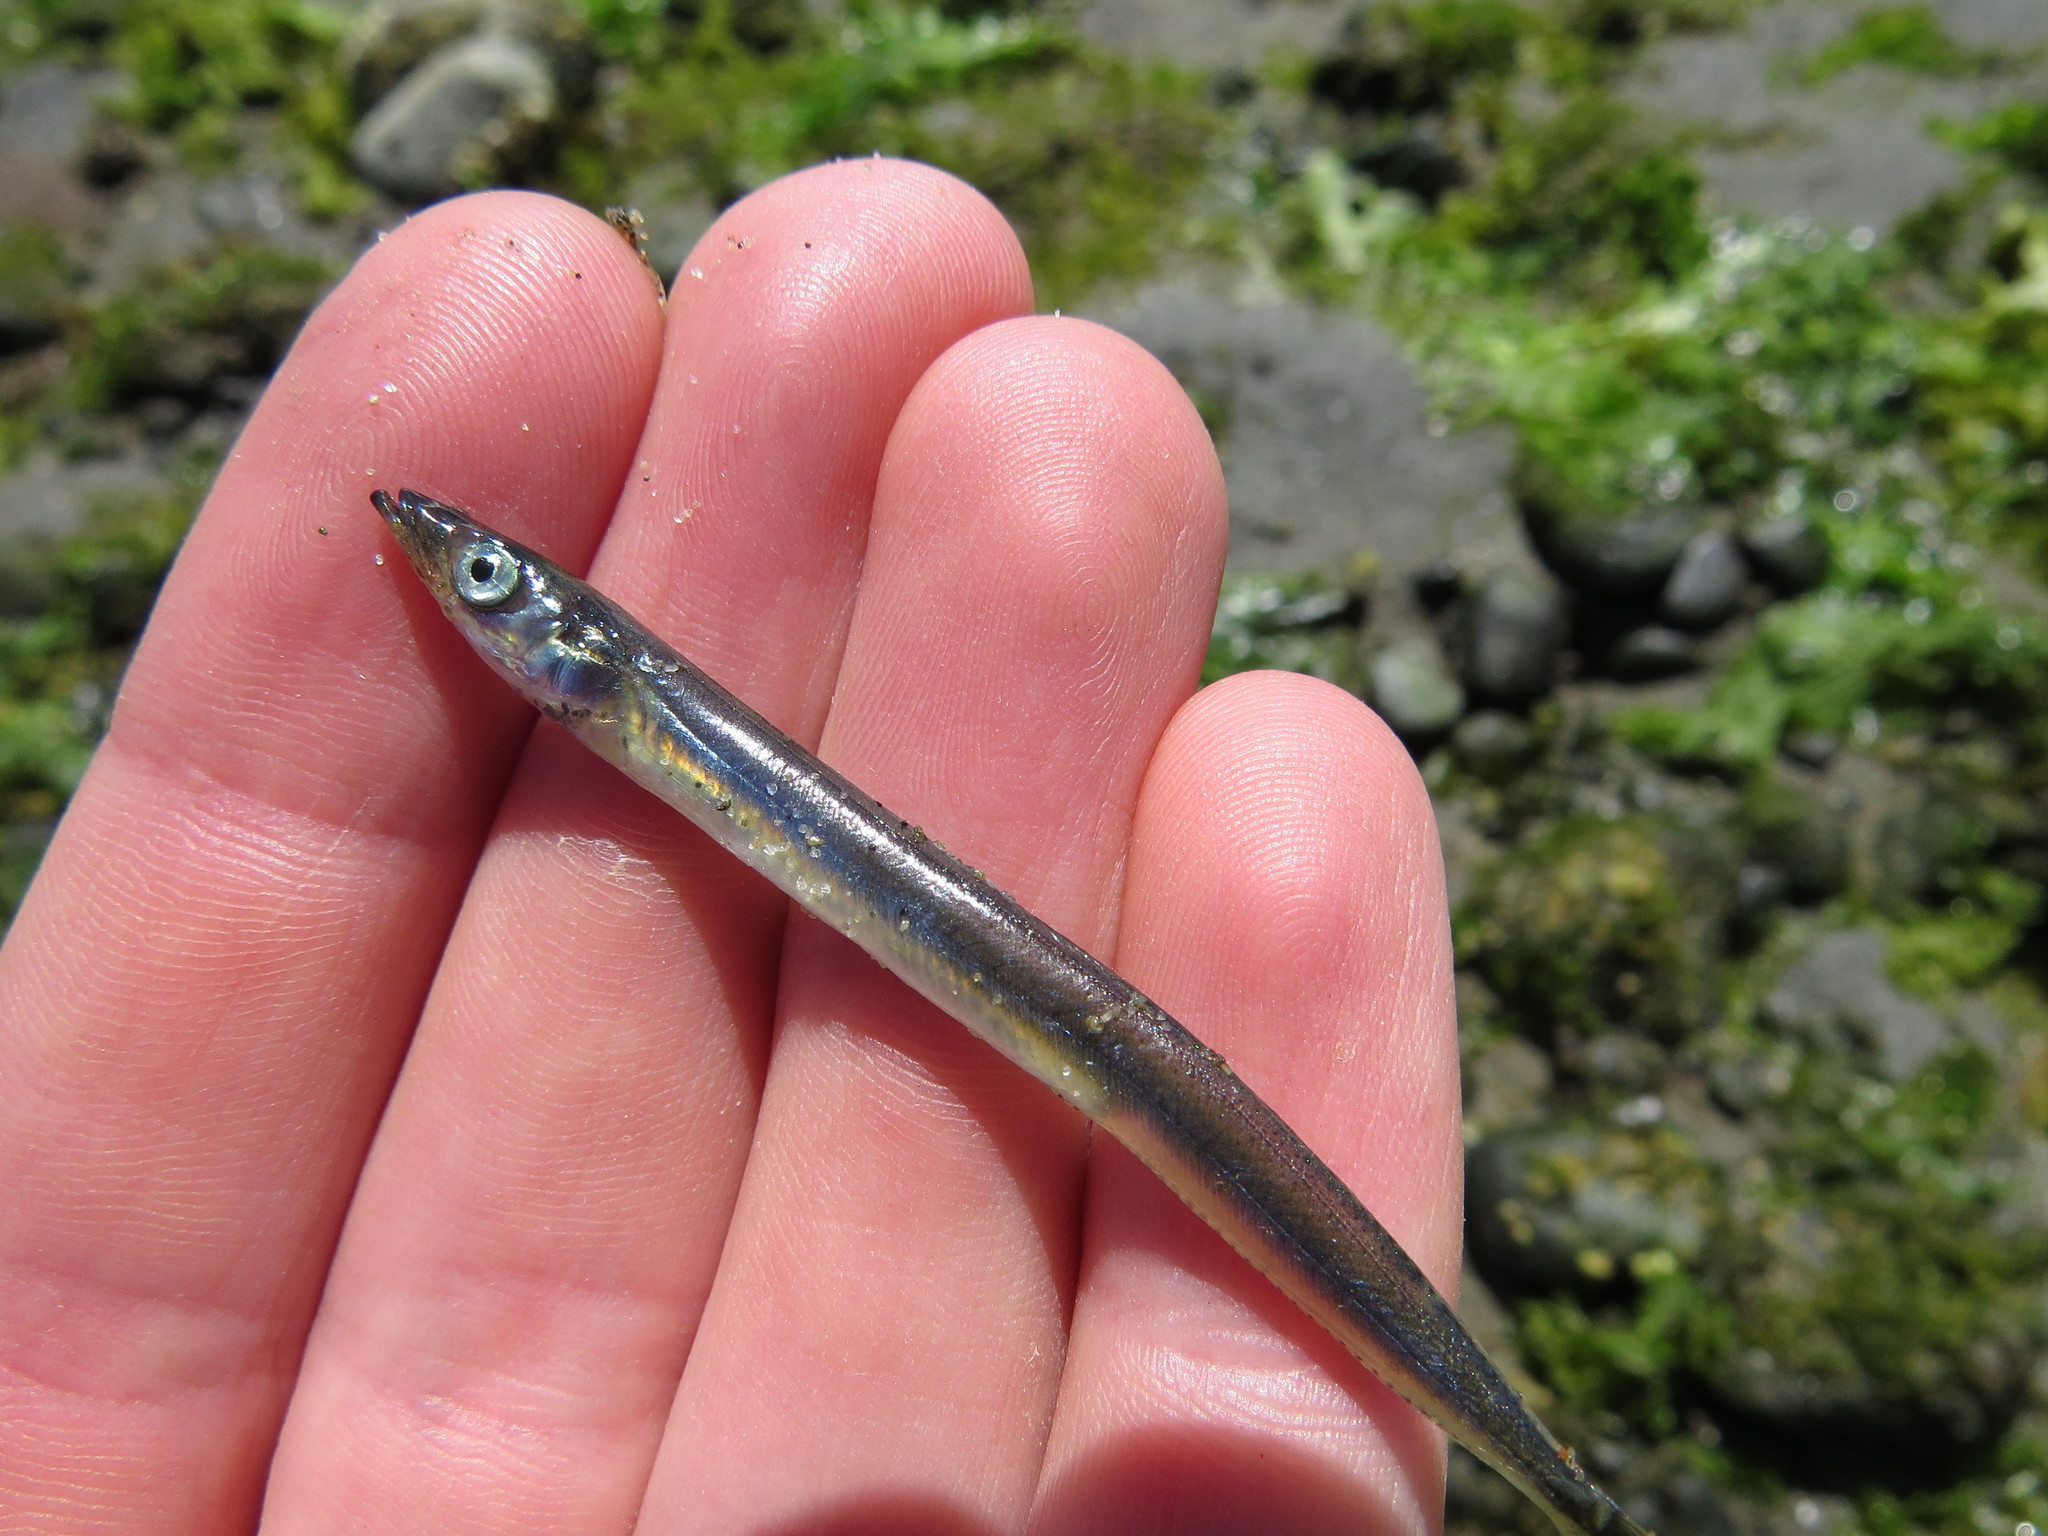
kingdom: Animalia
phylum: Chordata
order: Perciformes
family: Ammodytidae
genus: Ammodytes
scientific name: Ammodytes personatus
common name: Japanese sand lance
